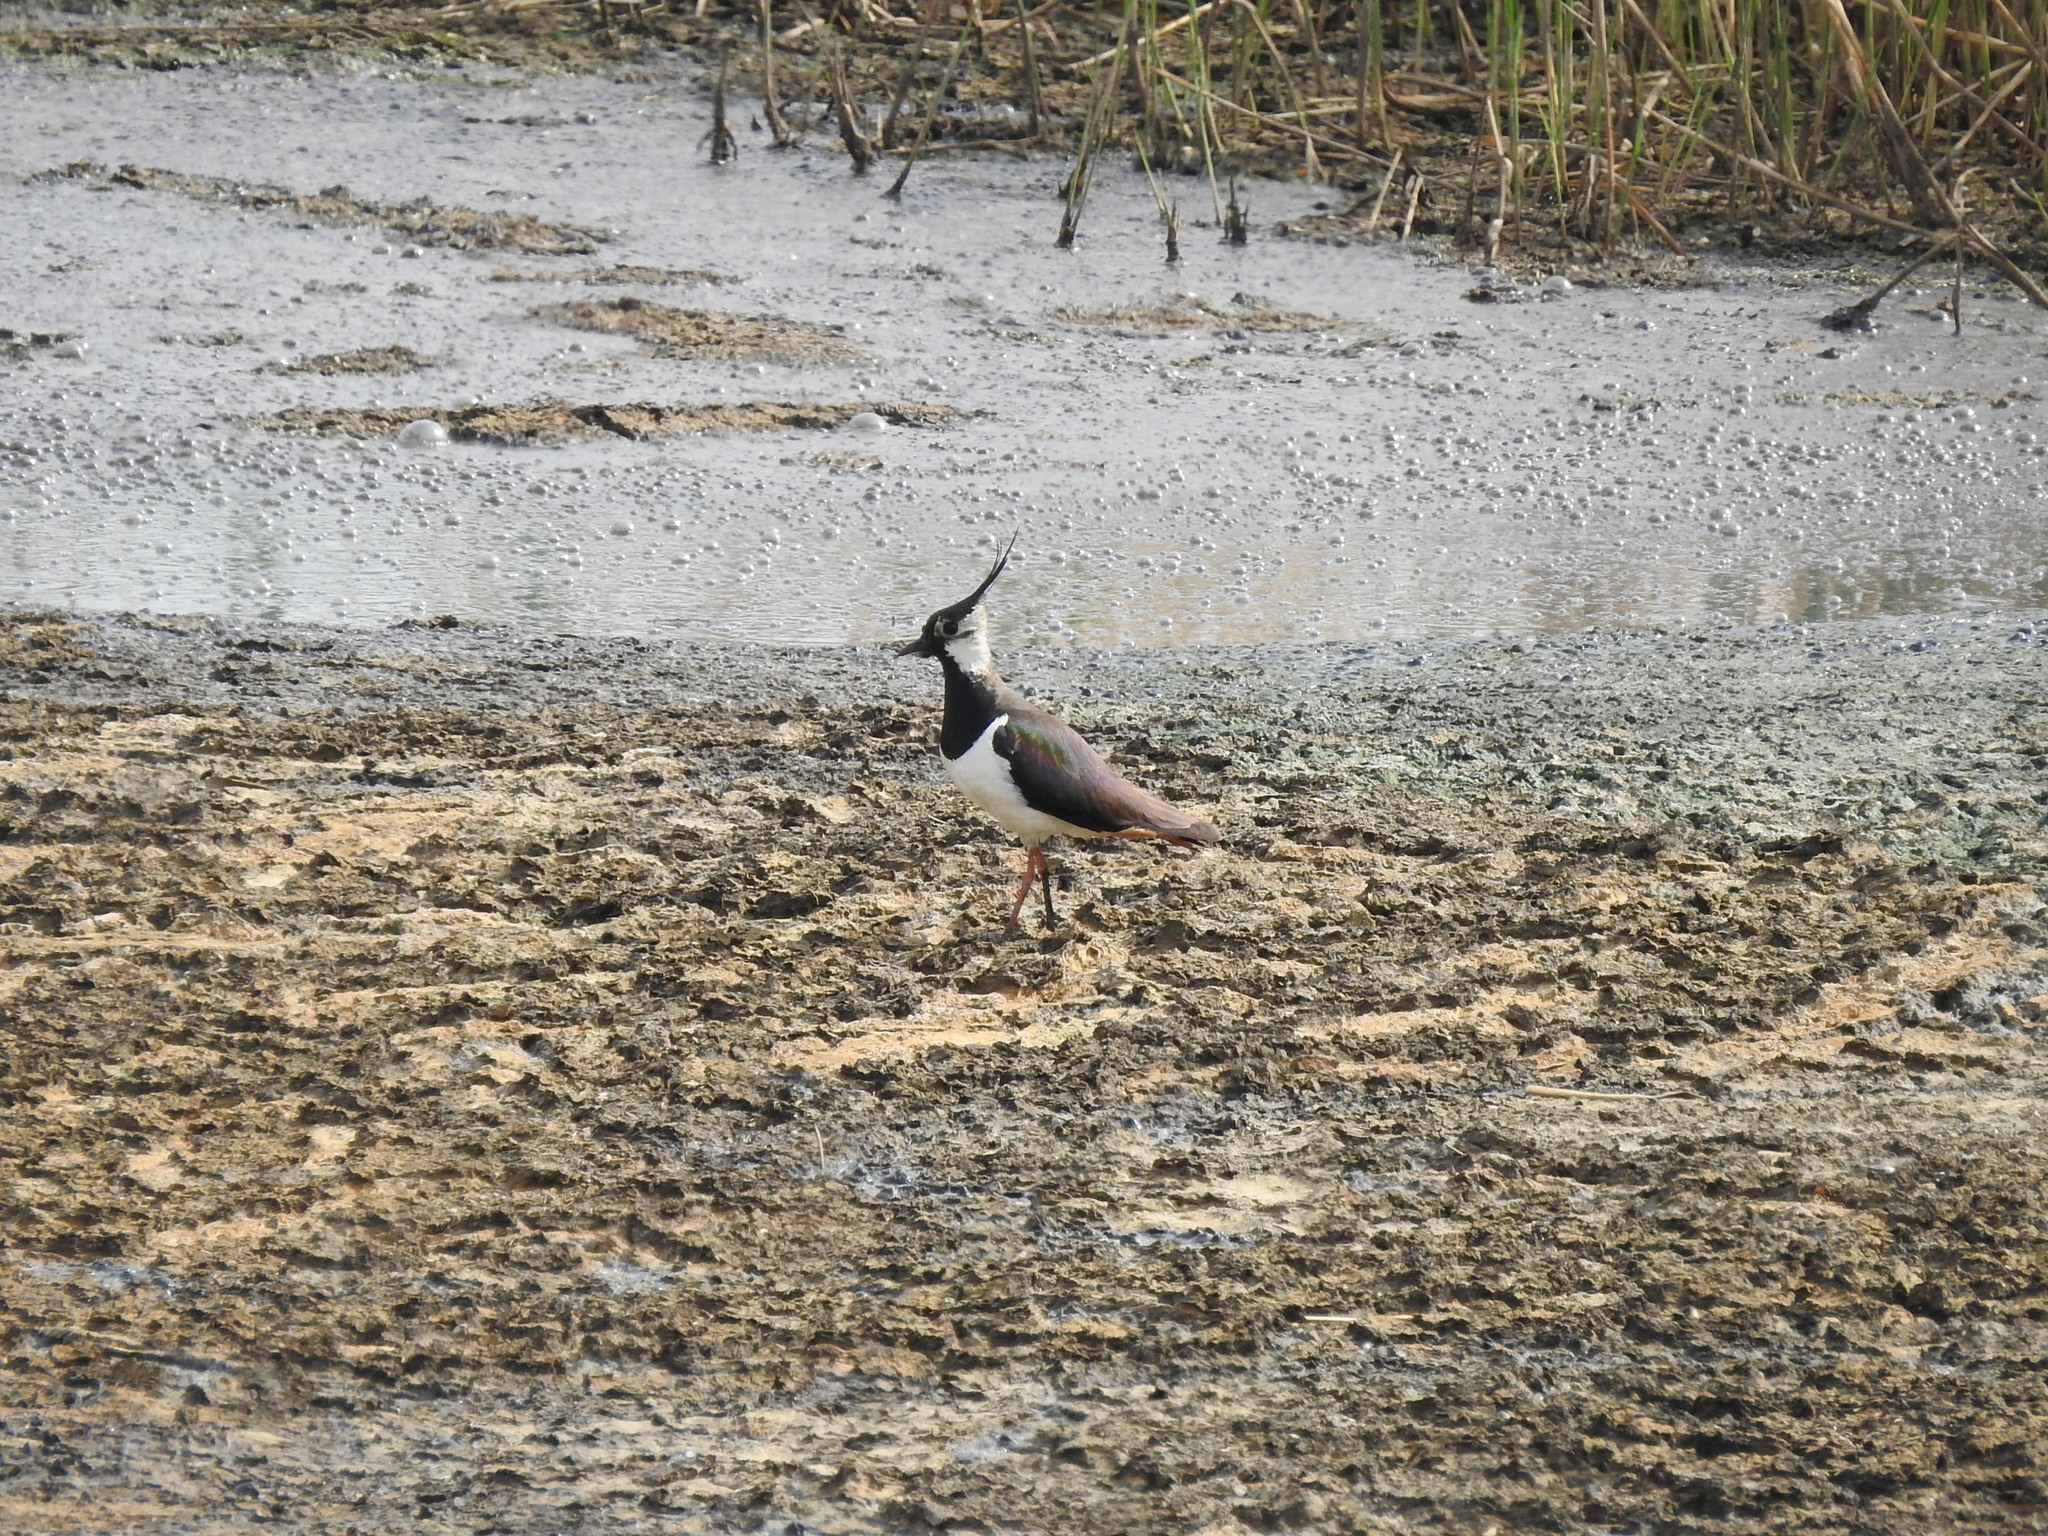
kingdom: Animalia
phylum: Chordata
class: Aves
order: Charadriiformes
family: Charadriidae
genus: Vanellus
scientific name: Vanellus vanellus
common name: Northern lapwing
